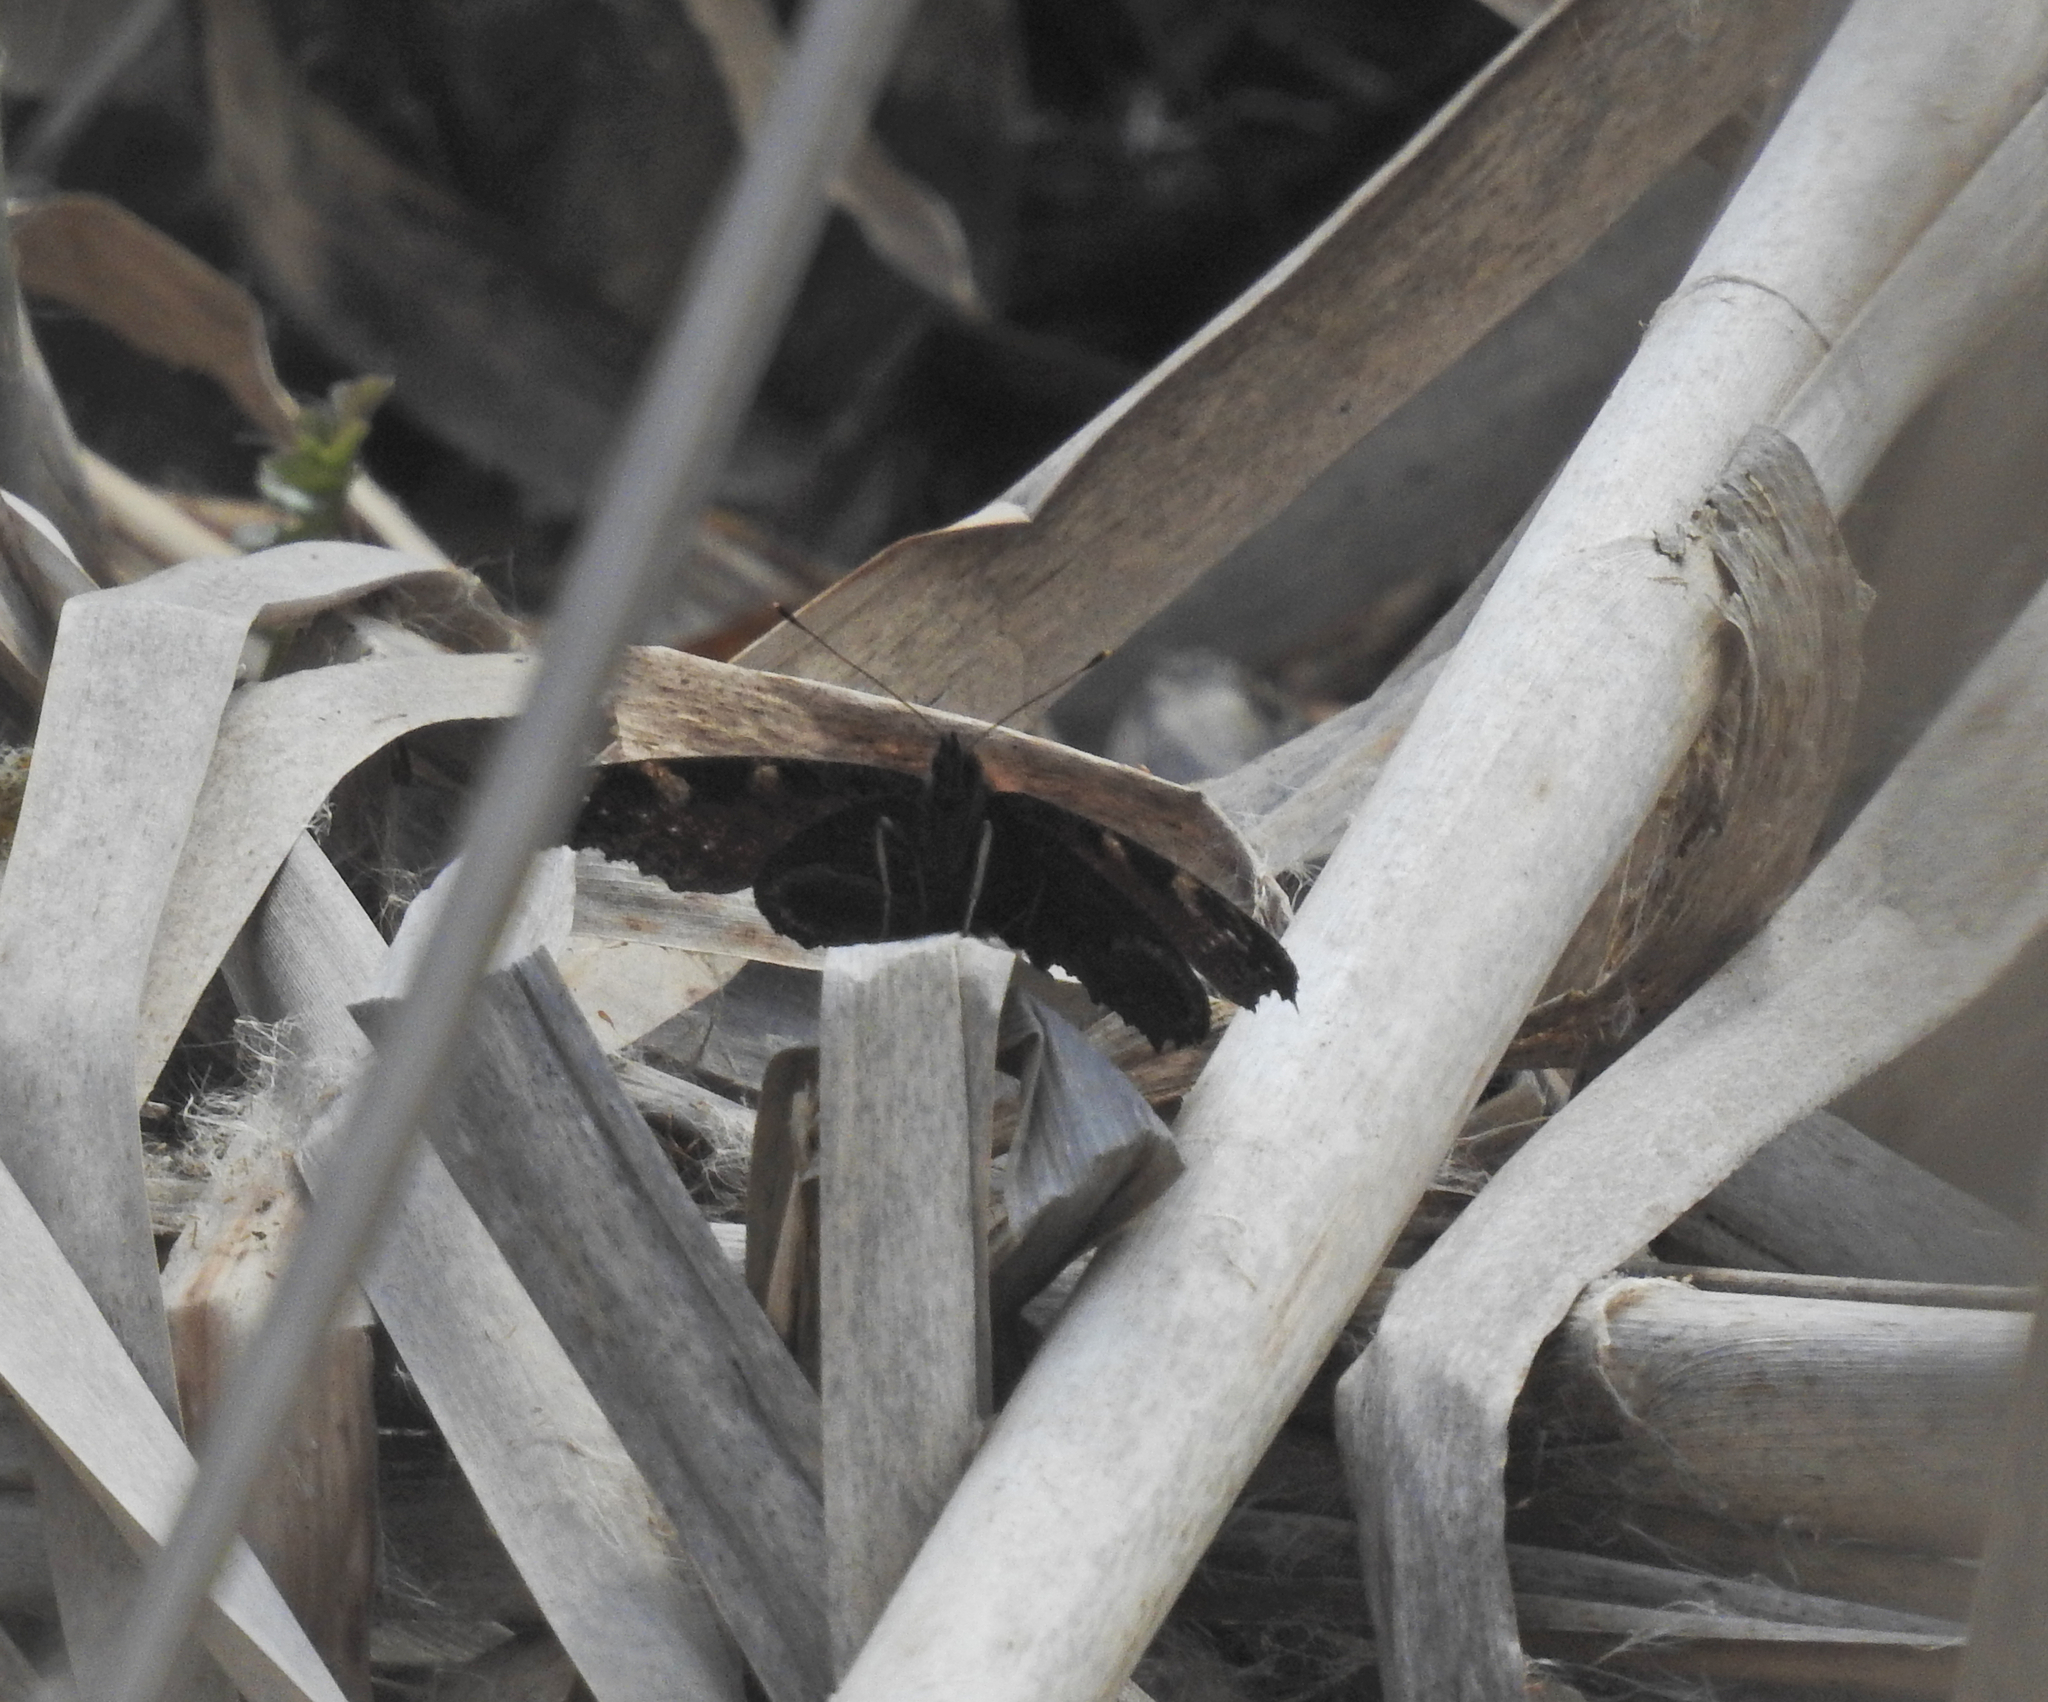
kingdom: Animalia
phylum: Arthropoda
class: Insecta
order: Lepidoptera
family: Nymphalidae
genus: Aglais
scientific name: Aglais io
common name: Peacock
